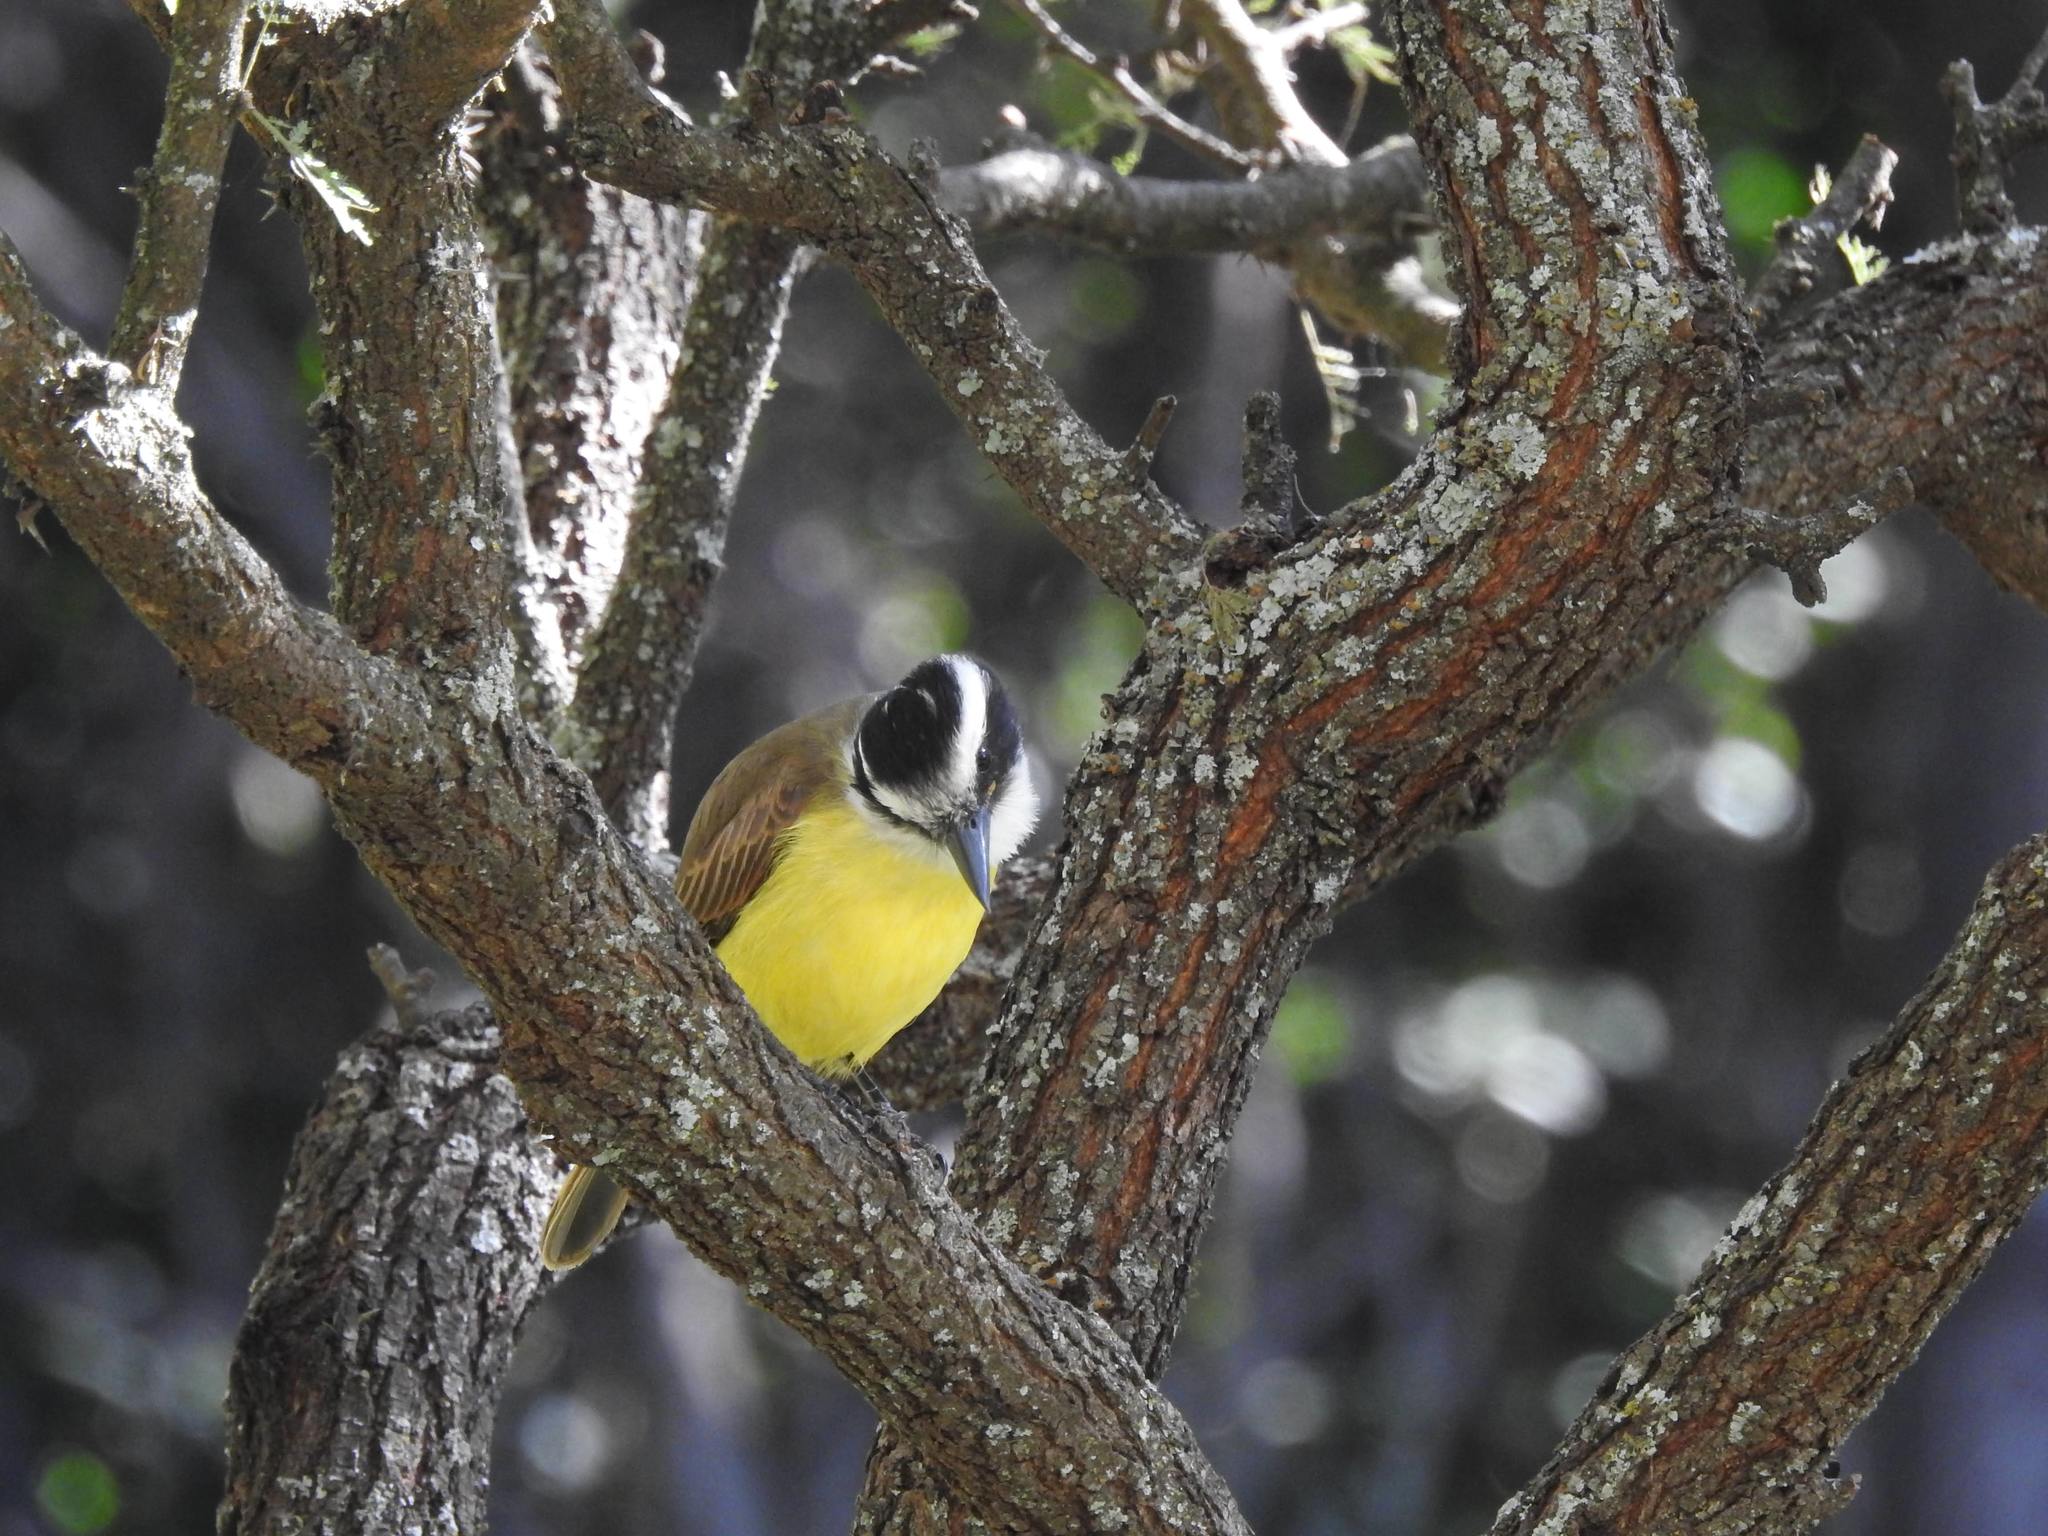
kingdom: Animalia
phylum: Chordata
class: Aves
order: Passeriformes
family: Tyrannidae
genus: Pitangus
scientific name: Pitangus sulphuratus
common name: Great kiskadee
